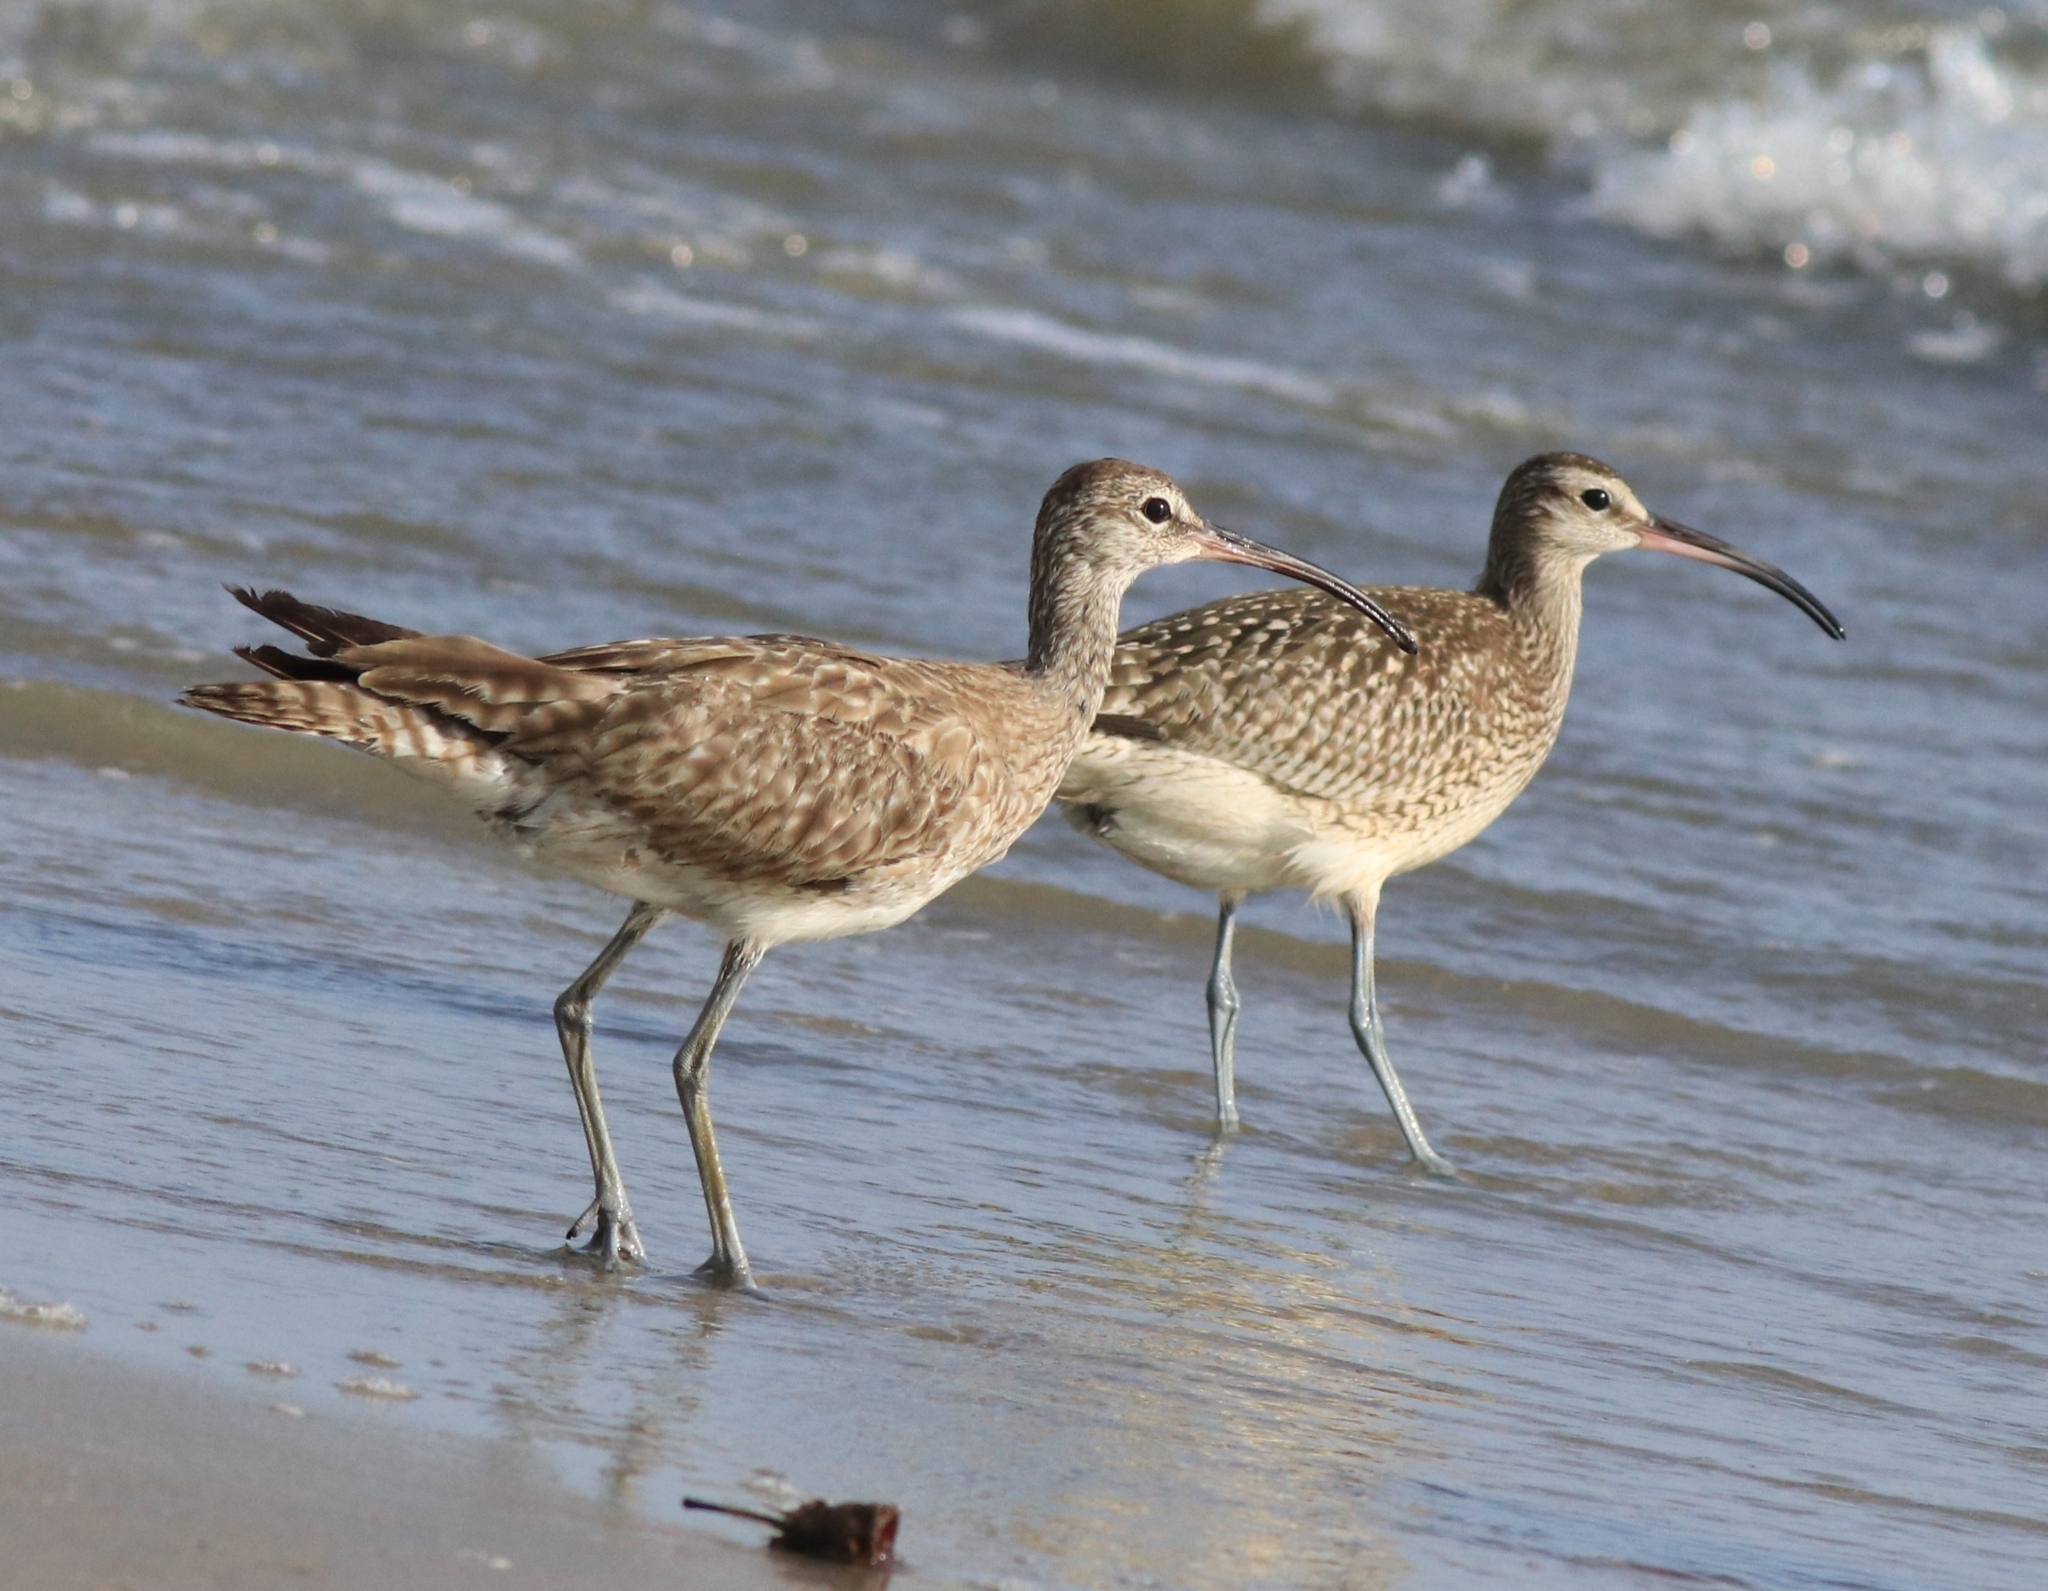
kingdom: Animalia
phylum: Chordata
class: Aves
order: Charadriiformes
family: Scolopacidae
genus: Numenius
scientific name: Numenius phaeopus
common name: Whimbrel
